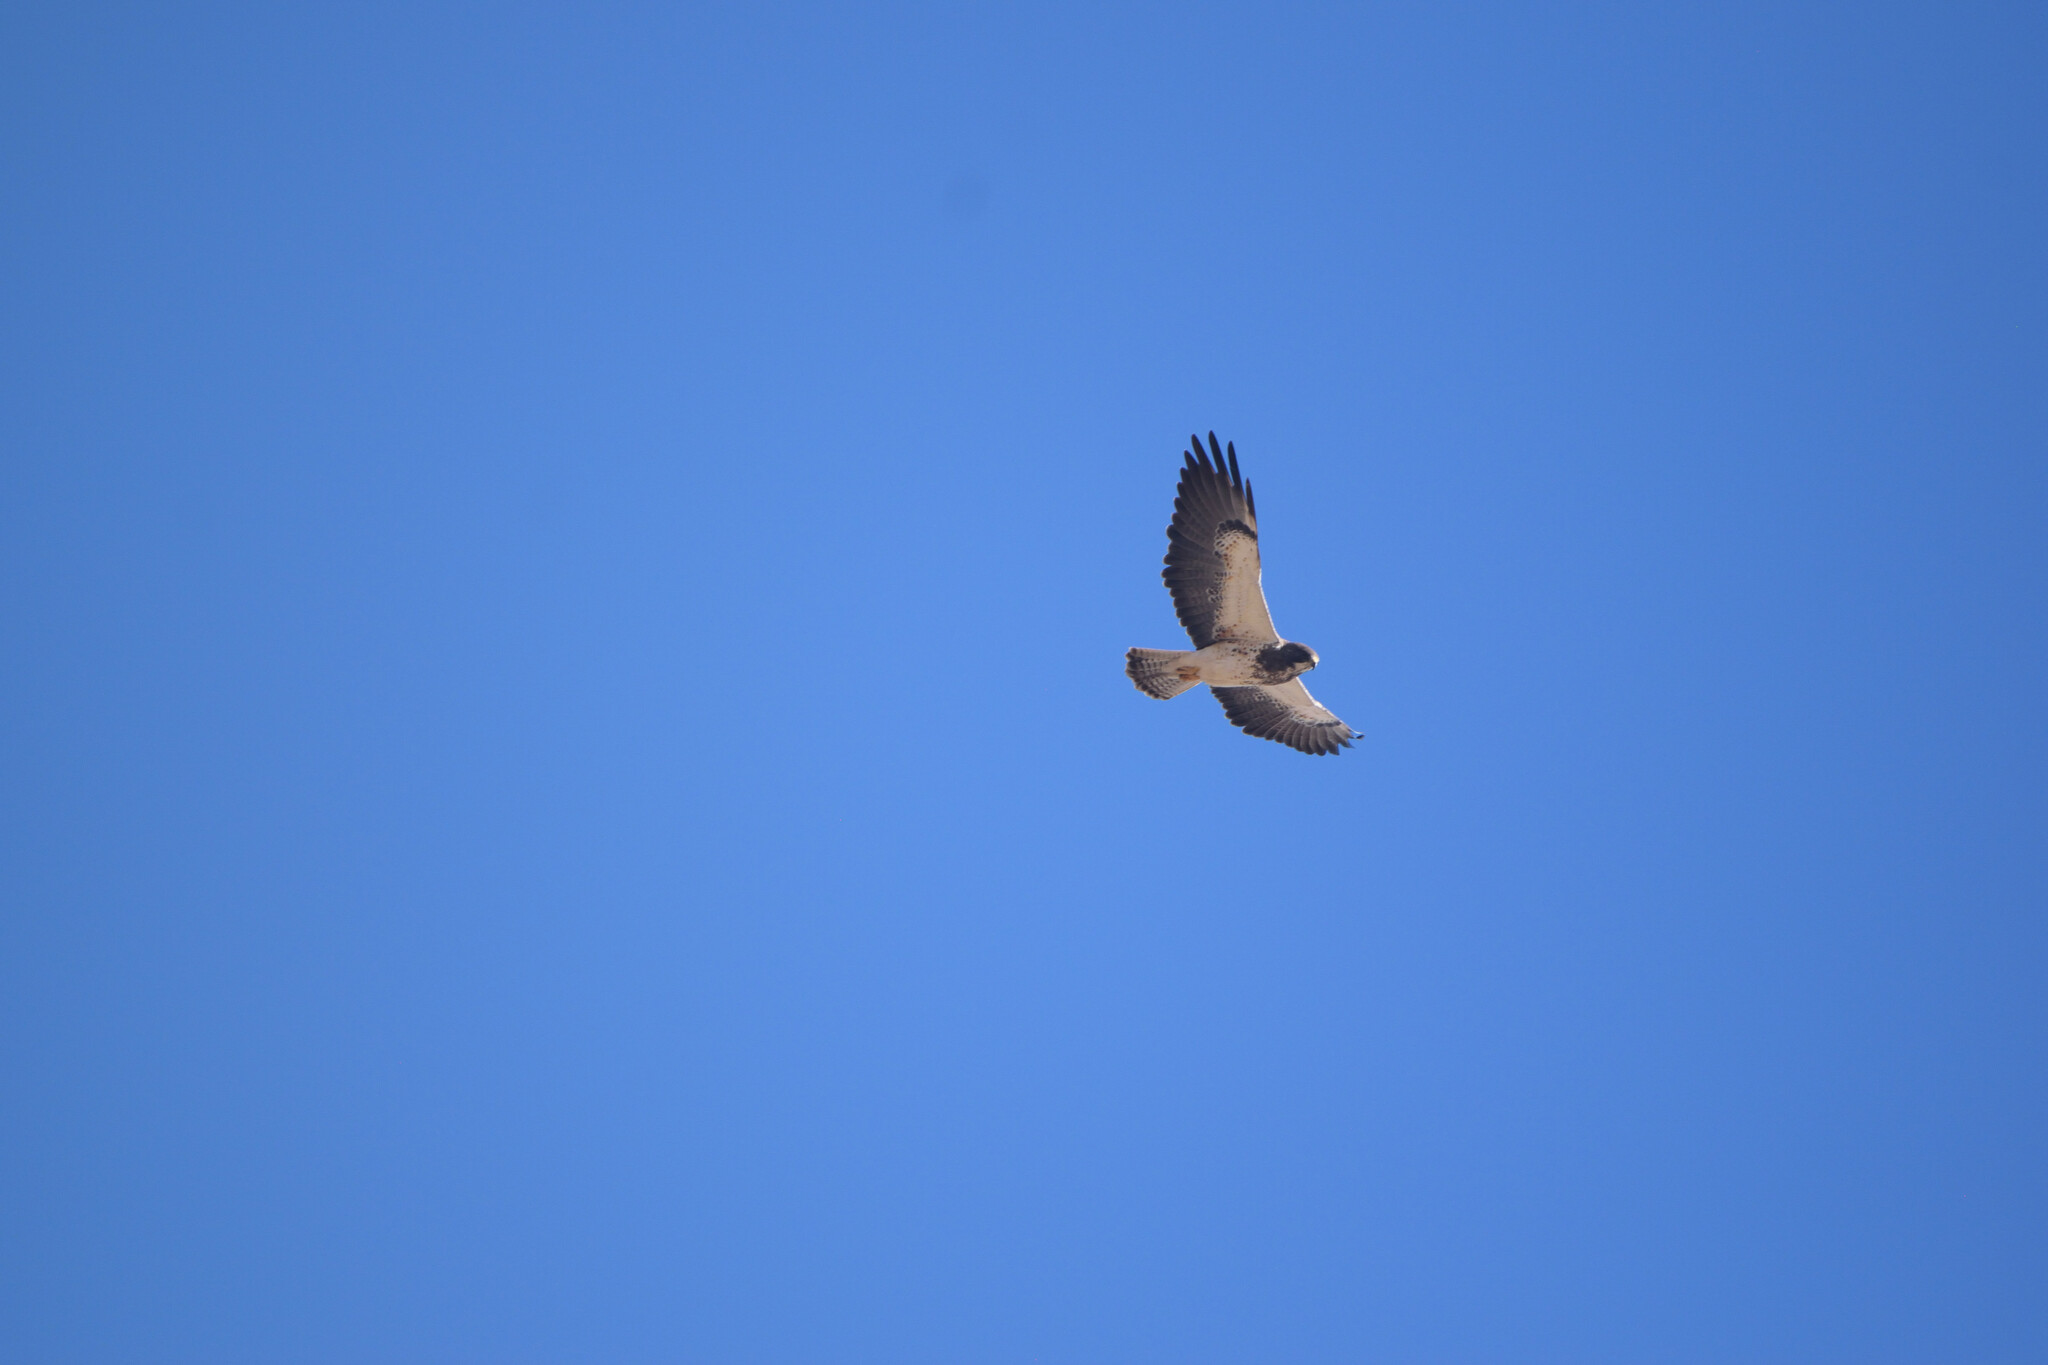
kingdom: Animalia
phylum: Chordata
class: Aves
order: Accipitriformes
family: Accipitridae
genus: Buteo
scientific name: Buteo swainsoni
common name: Swainson's hawk
